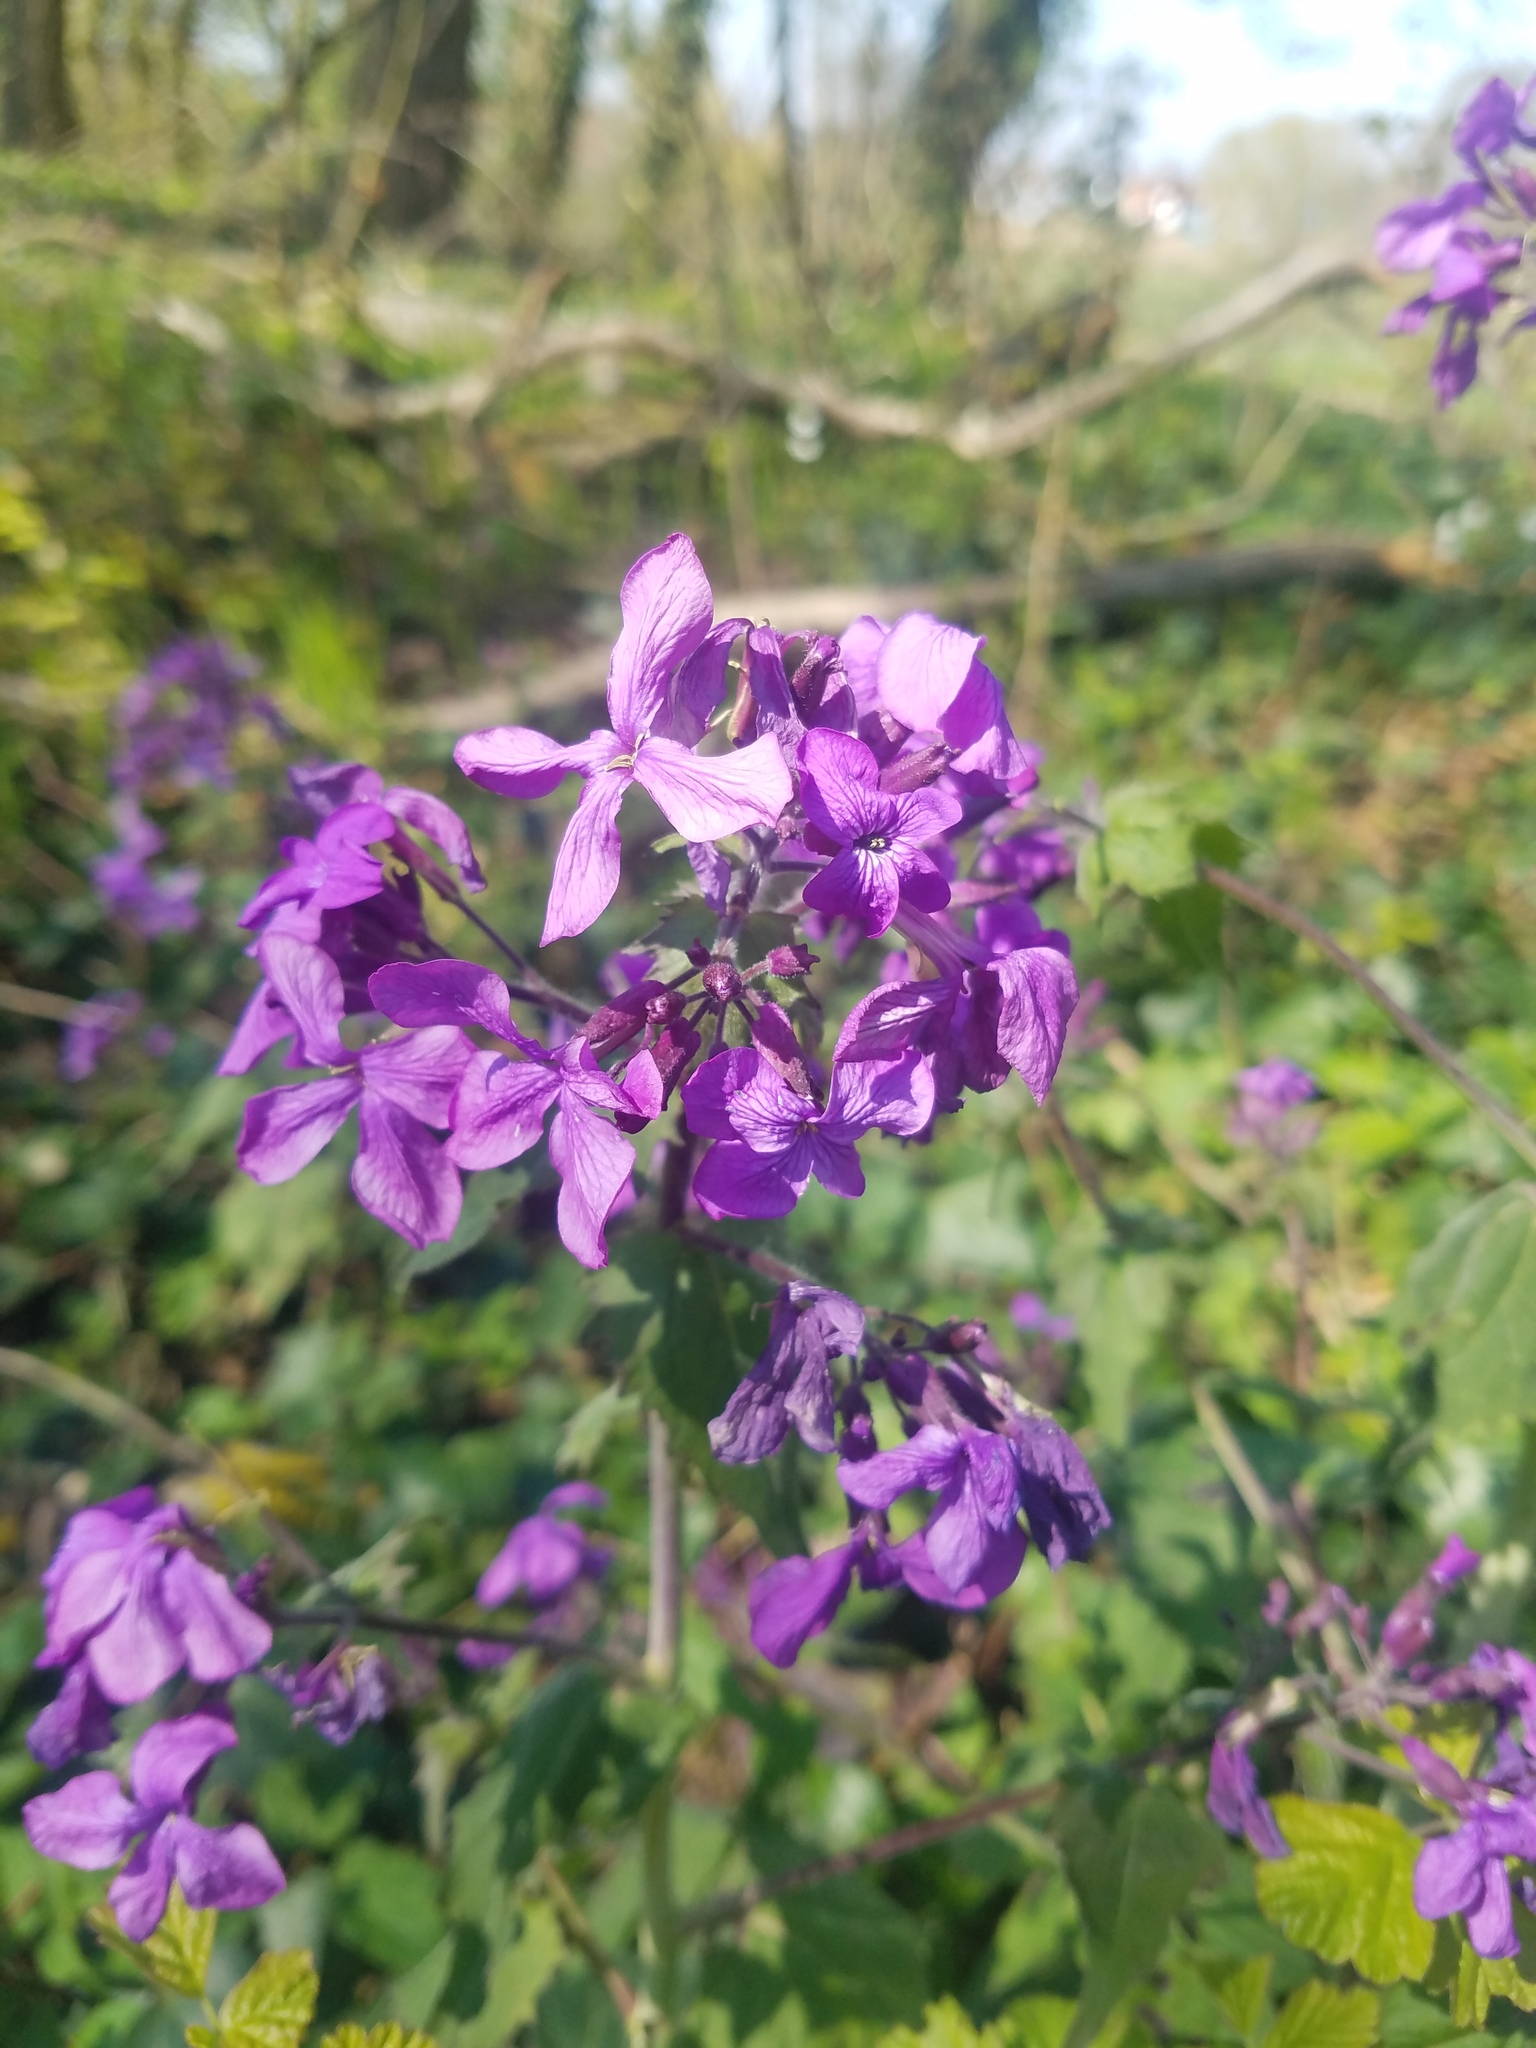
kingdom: Plantae
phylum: Tracheophyta
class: Magnoliopsida
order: Brassicales
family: Brassicaceae
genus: Lunaria
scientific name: Lunaria annua
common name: Honesty
